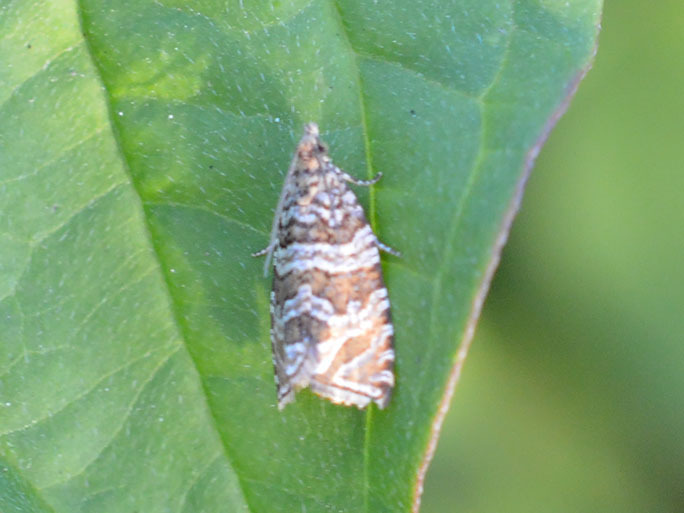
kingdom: Animalia
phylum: Arthropoda
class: Insecta
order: Lepidoptera
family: Tortricidae
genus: Syricoris
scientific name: Syricoris rivulana
